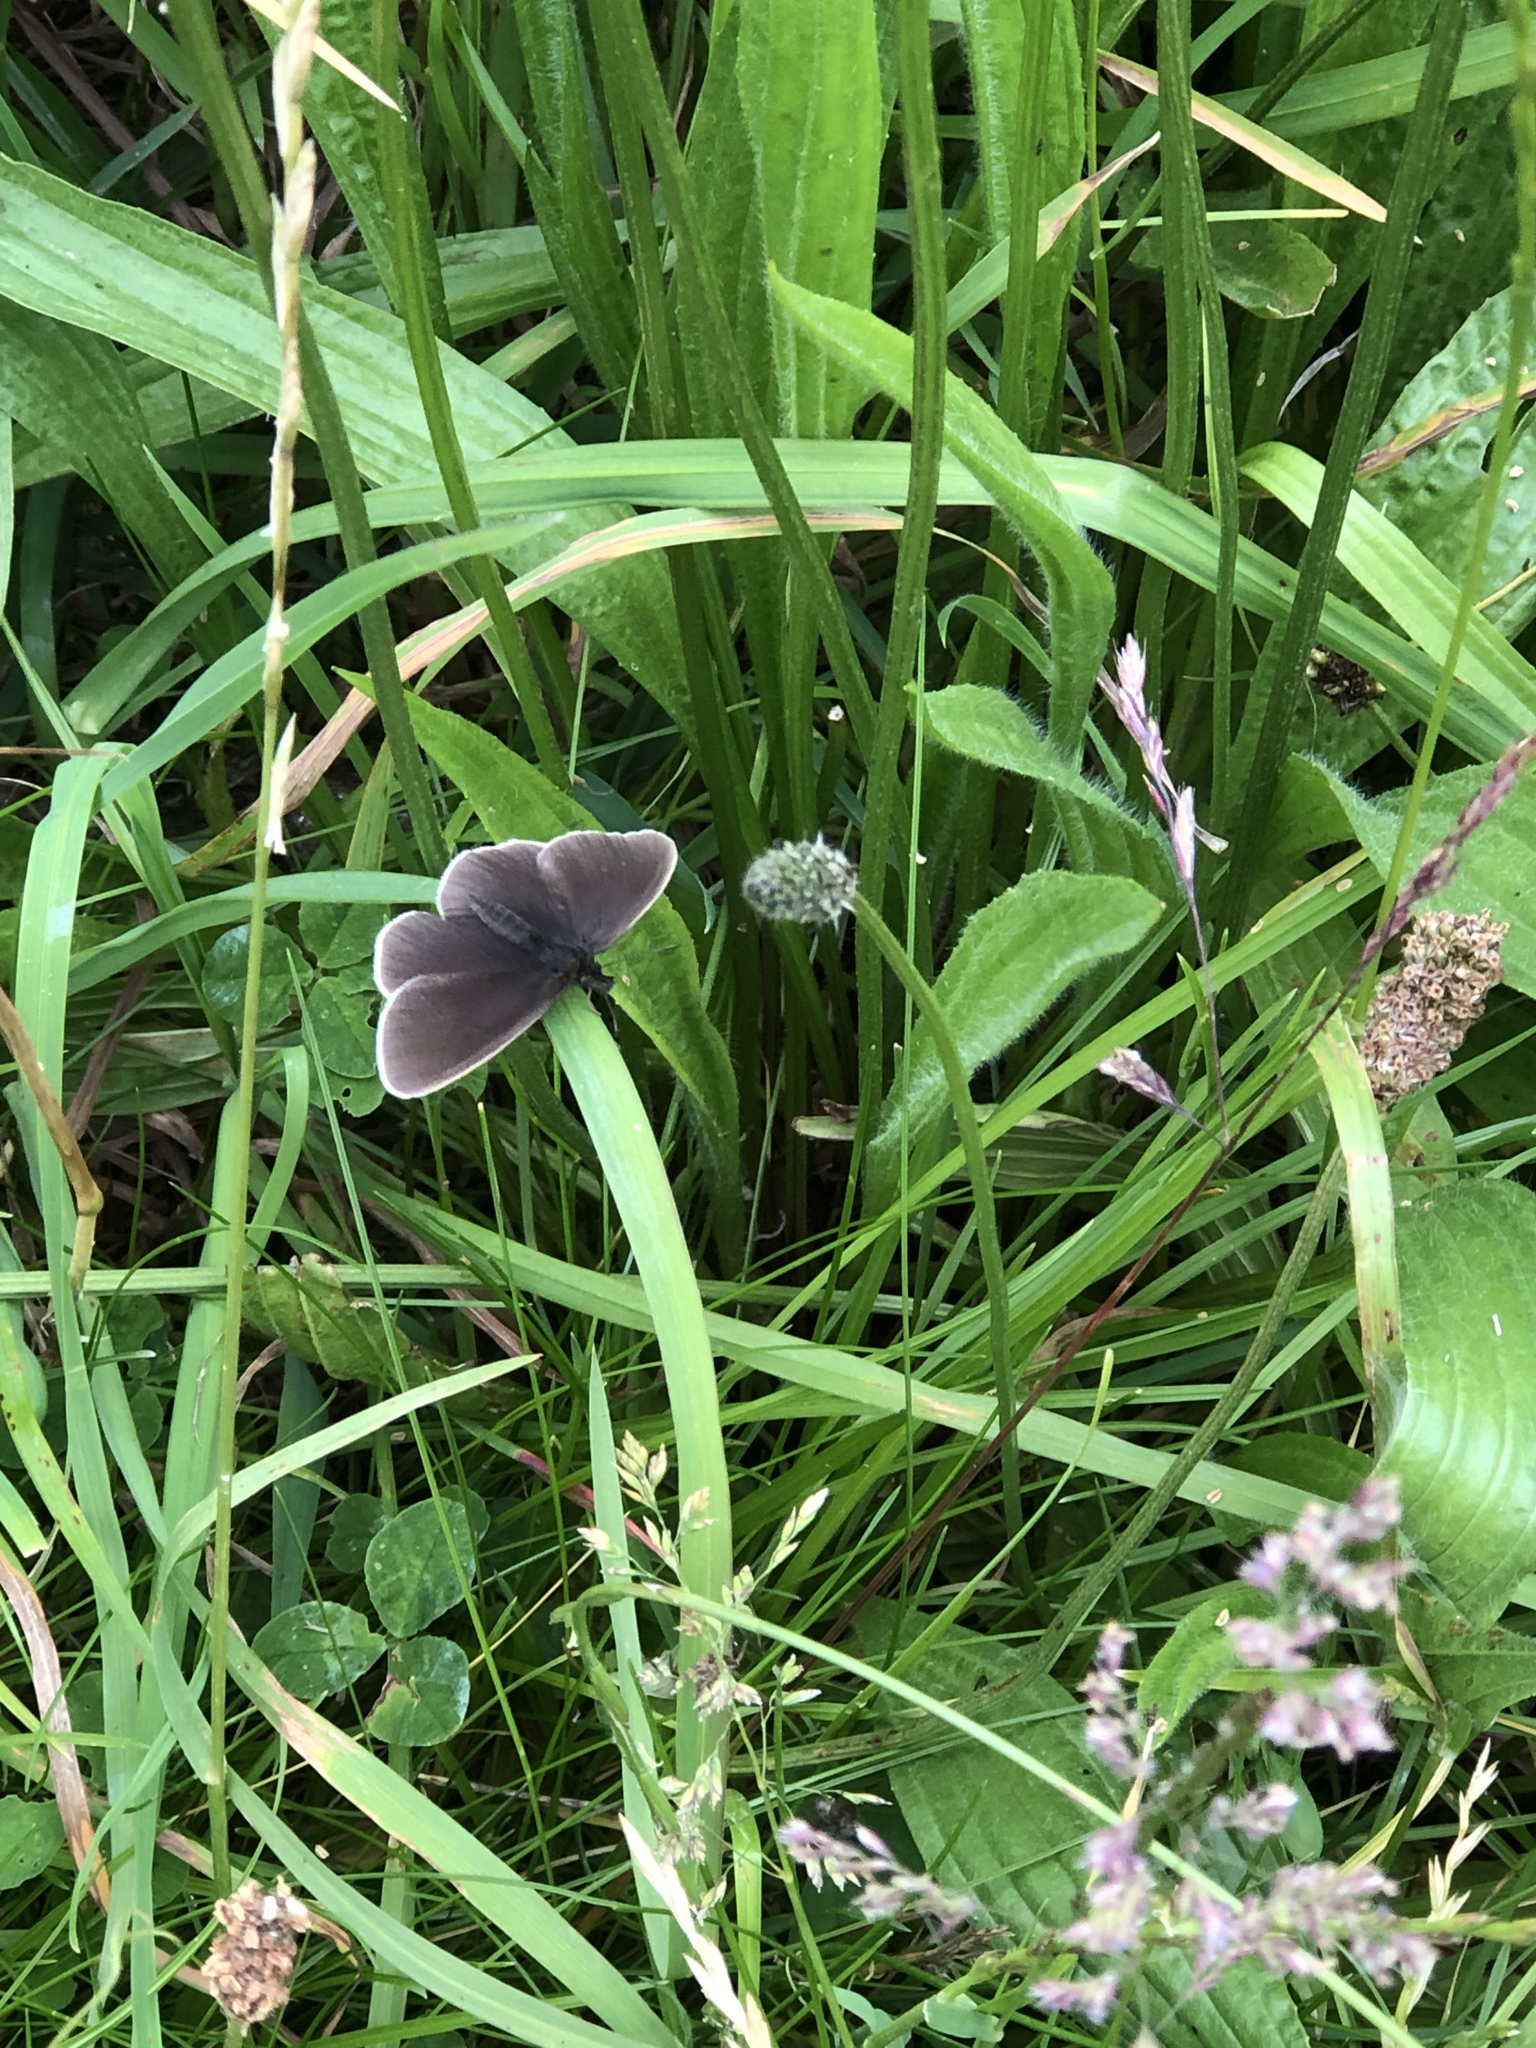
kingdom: Animalia
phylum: Arthropoda
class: Insecta
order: Lepidoptera
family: Nymphalidae
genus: Aphantopus
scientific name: Aphantopus hyperantus
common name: Ringlet
